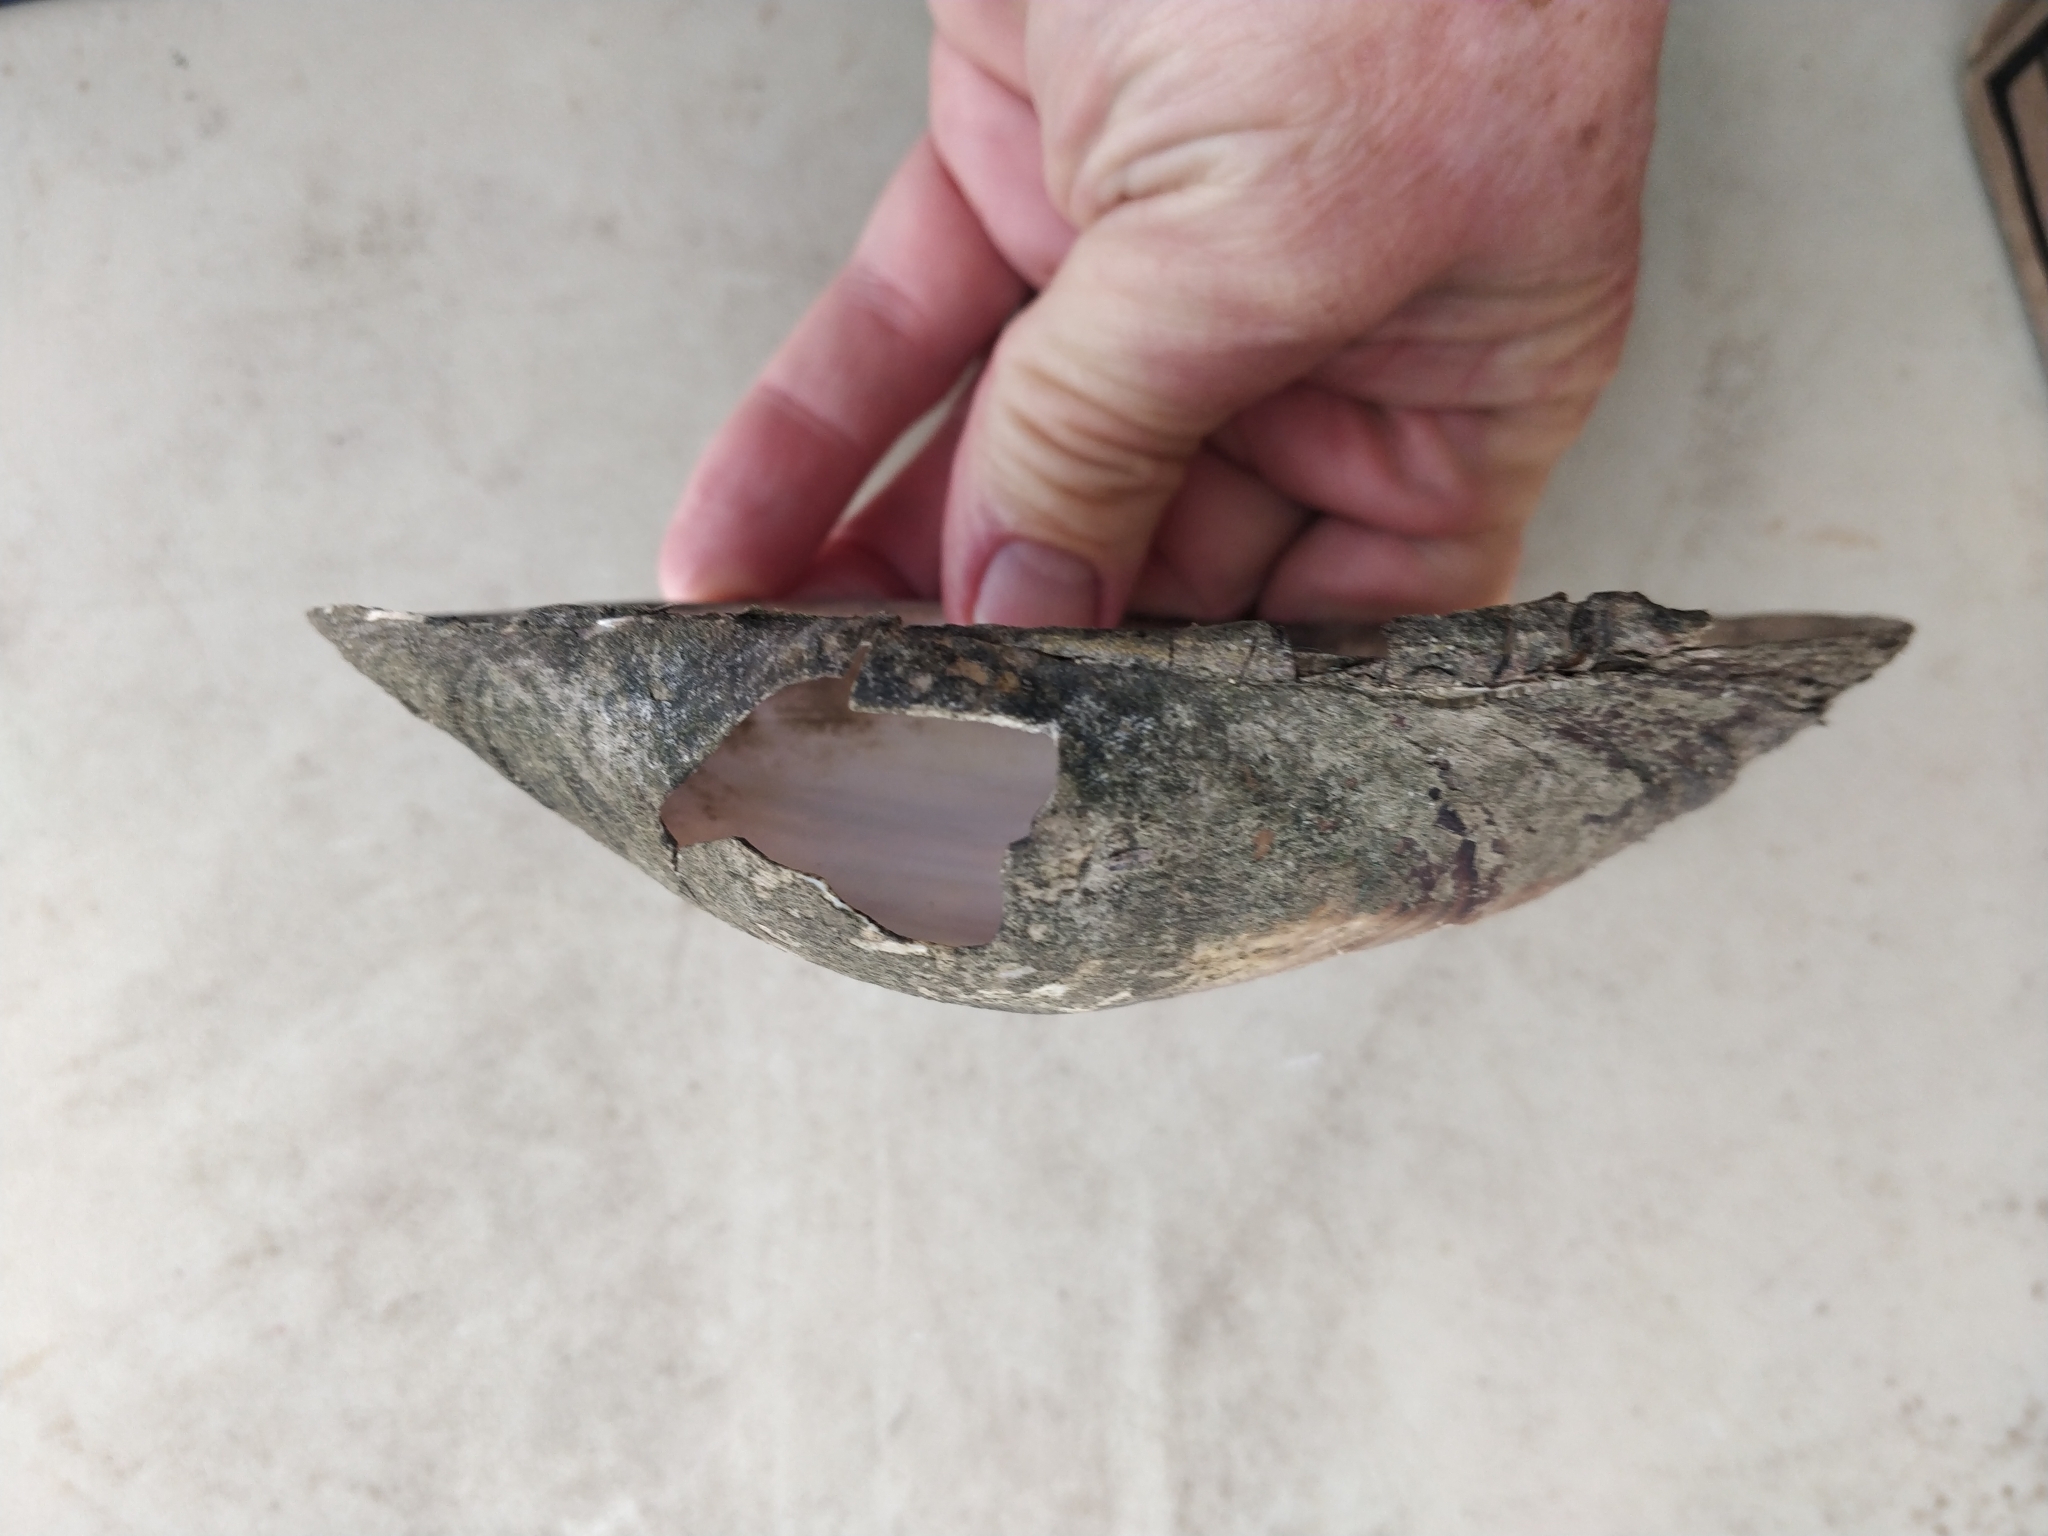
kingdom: Animalia
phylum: Mollusca
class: Bivalvia
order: Unionida
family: Unionidae
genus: Pyganodon
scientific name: Pyganodon grandis
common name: Giant floater
